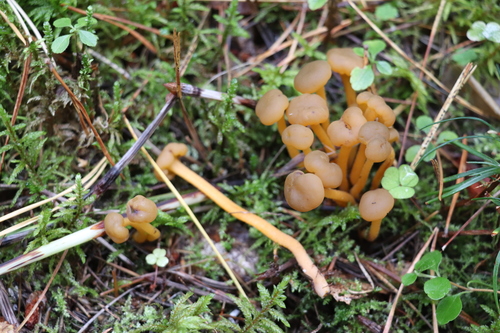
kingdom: Fungi
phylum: Ascomycota
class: Leotiomycetes
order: Leotiales
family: Leotiaceae
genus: Leotia
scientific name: Leotia lubrica
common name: Jellybaby
